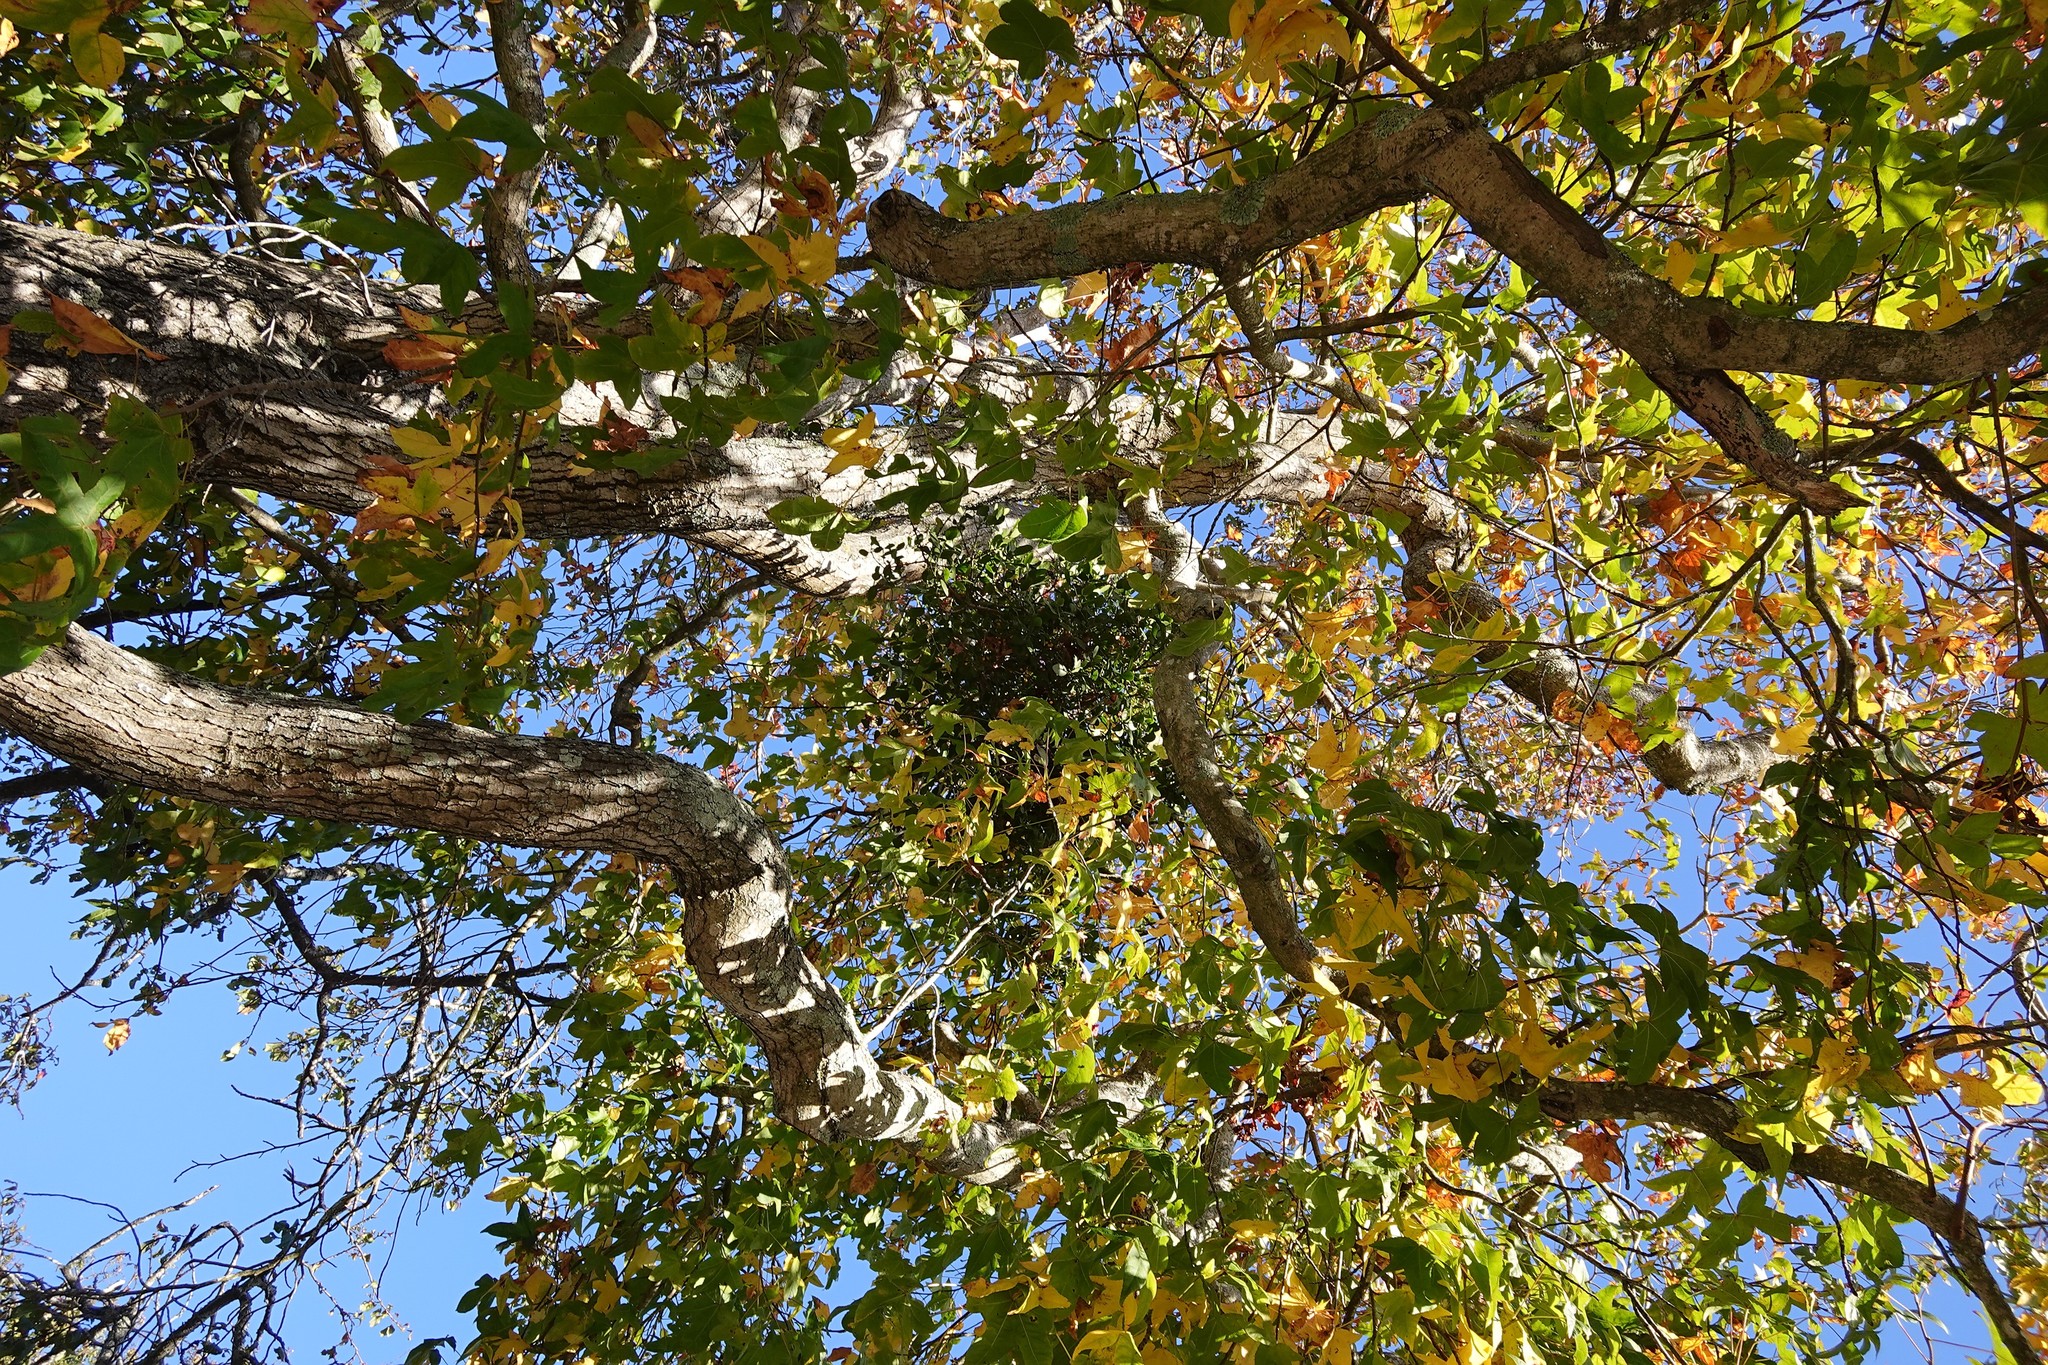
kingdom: Plantae
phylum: Tracheophyta
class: Magnoliopsida
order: Santalales
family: Loranthaceae
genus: Ileostylus
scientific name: Ileostylus micranthus
